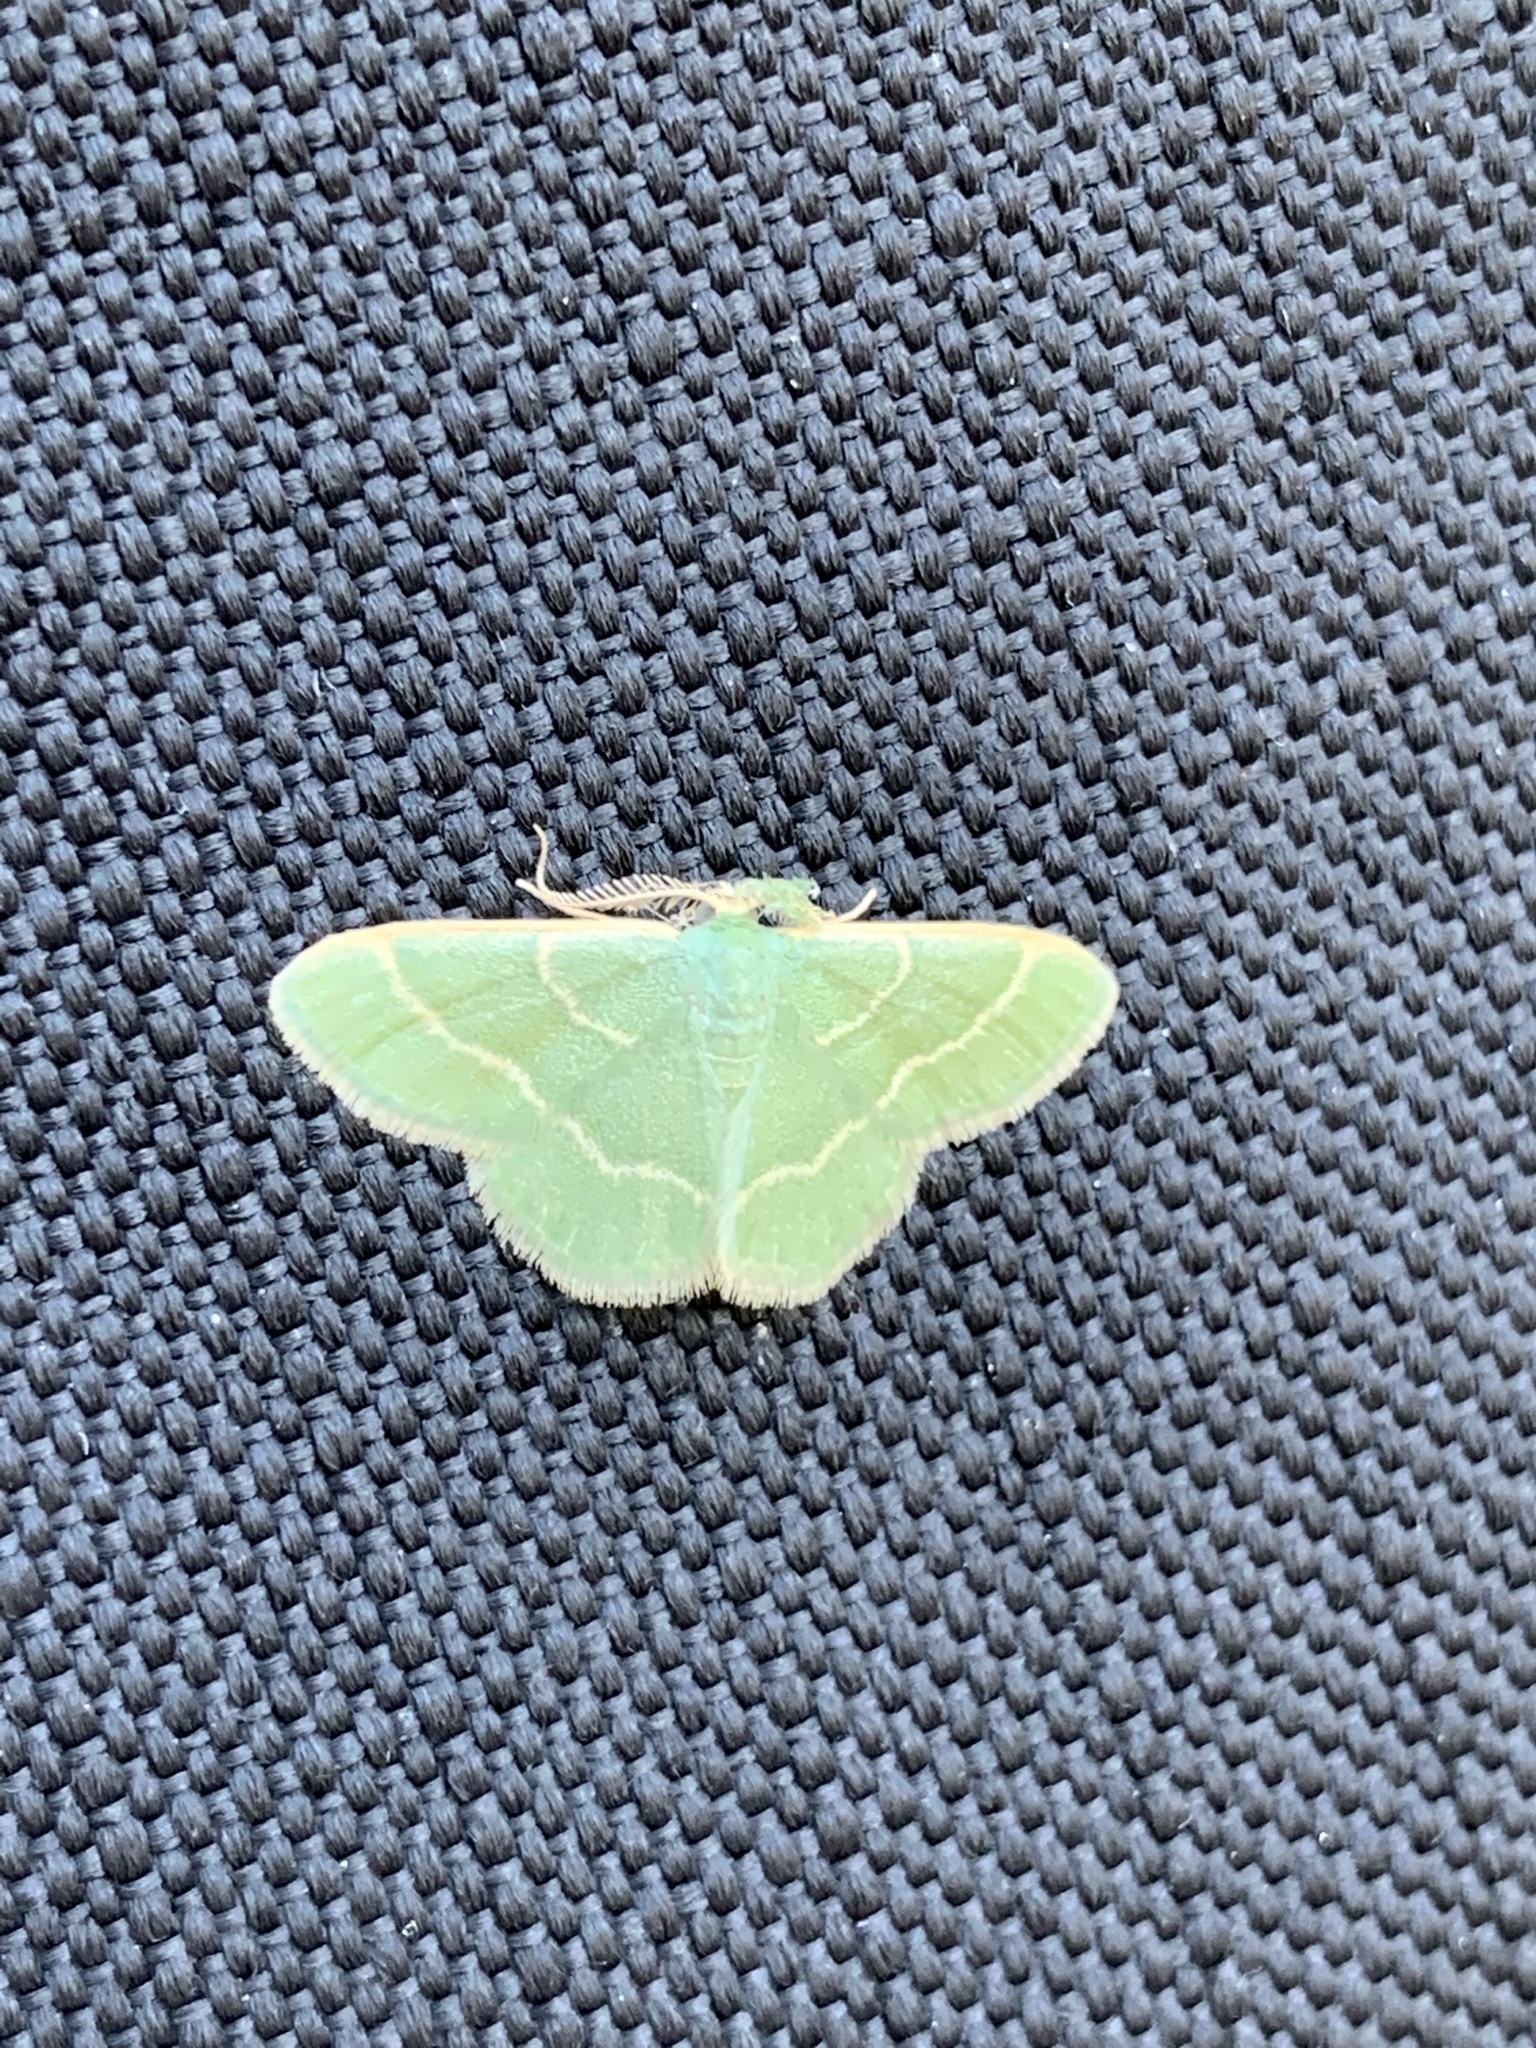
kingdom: Animalia
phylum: Arthropoda
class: Insecta
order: Lepidoptera
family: Geometridae
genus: Chlorochlamys
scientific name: Chlorochlamys phyllinaria
